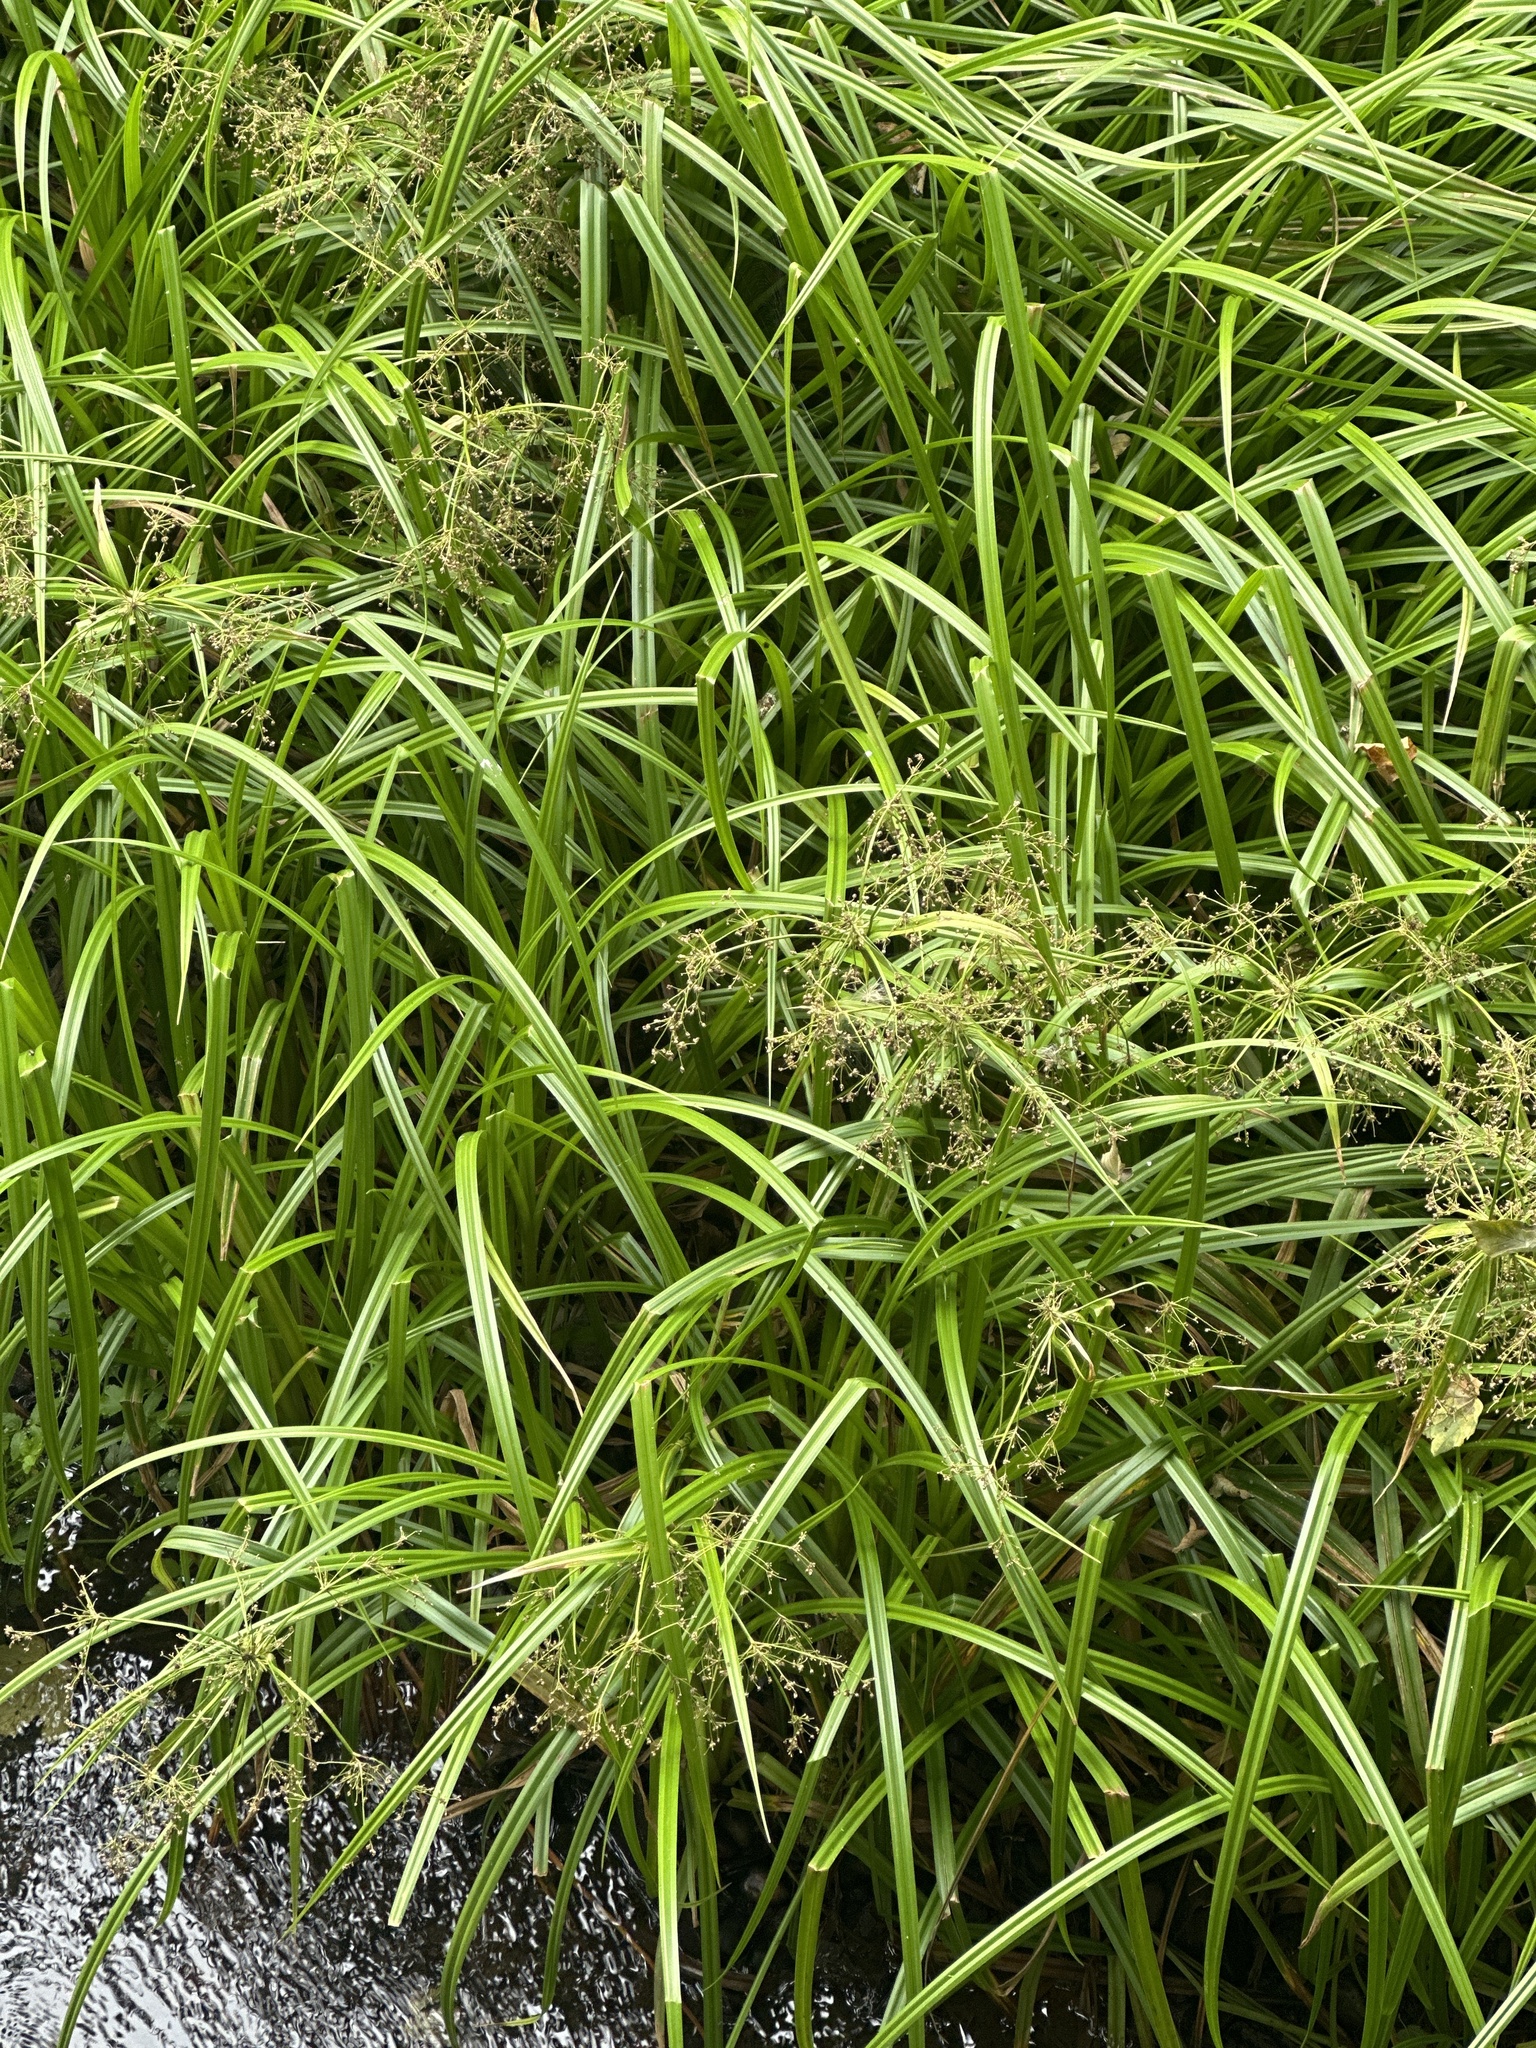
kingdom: Plantae
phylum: Tracheophyta
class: Liliopsida
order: Poales
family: Cyperaceae
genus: Scirpus
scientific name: Scirpus sylvaticus
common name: Wood club-rush
